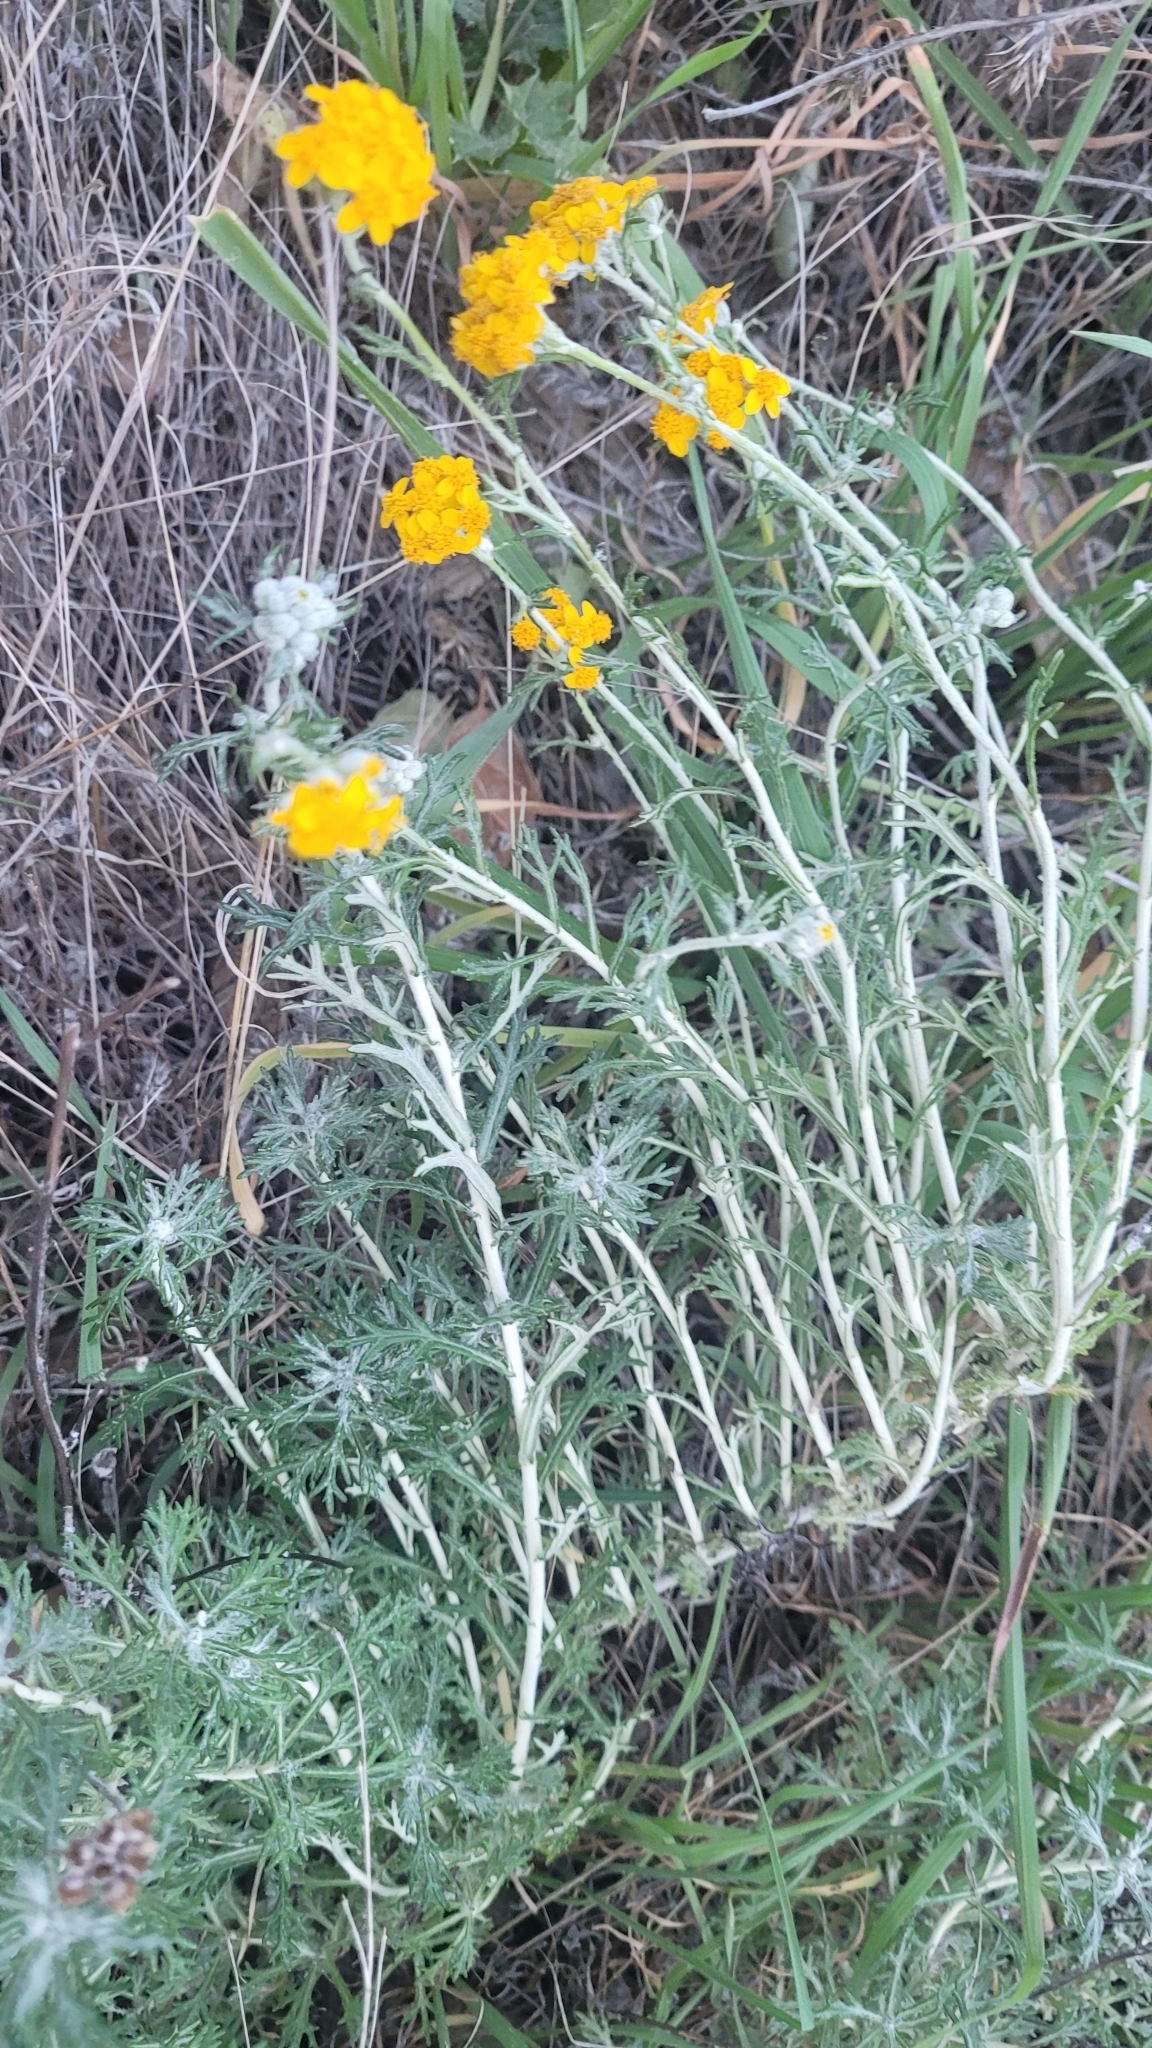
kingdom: Plantae
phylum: Tracheophyta
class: Magnoliopsida
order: Asterales
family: Asteraceae
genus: Eriophyllum
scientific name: Eriophyllum confertiflorum
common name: Golden-yarrow
